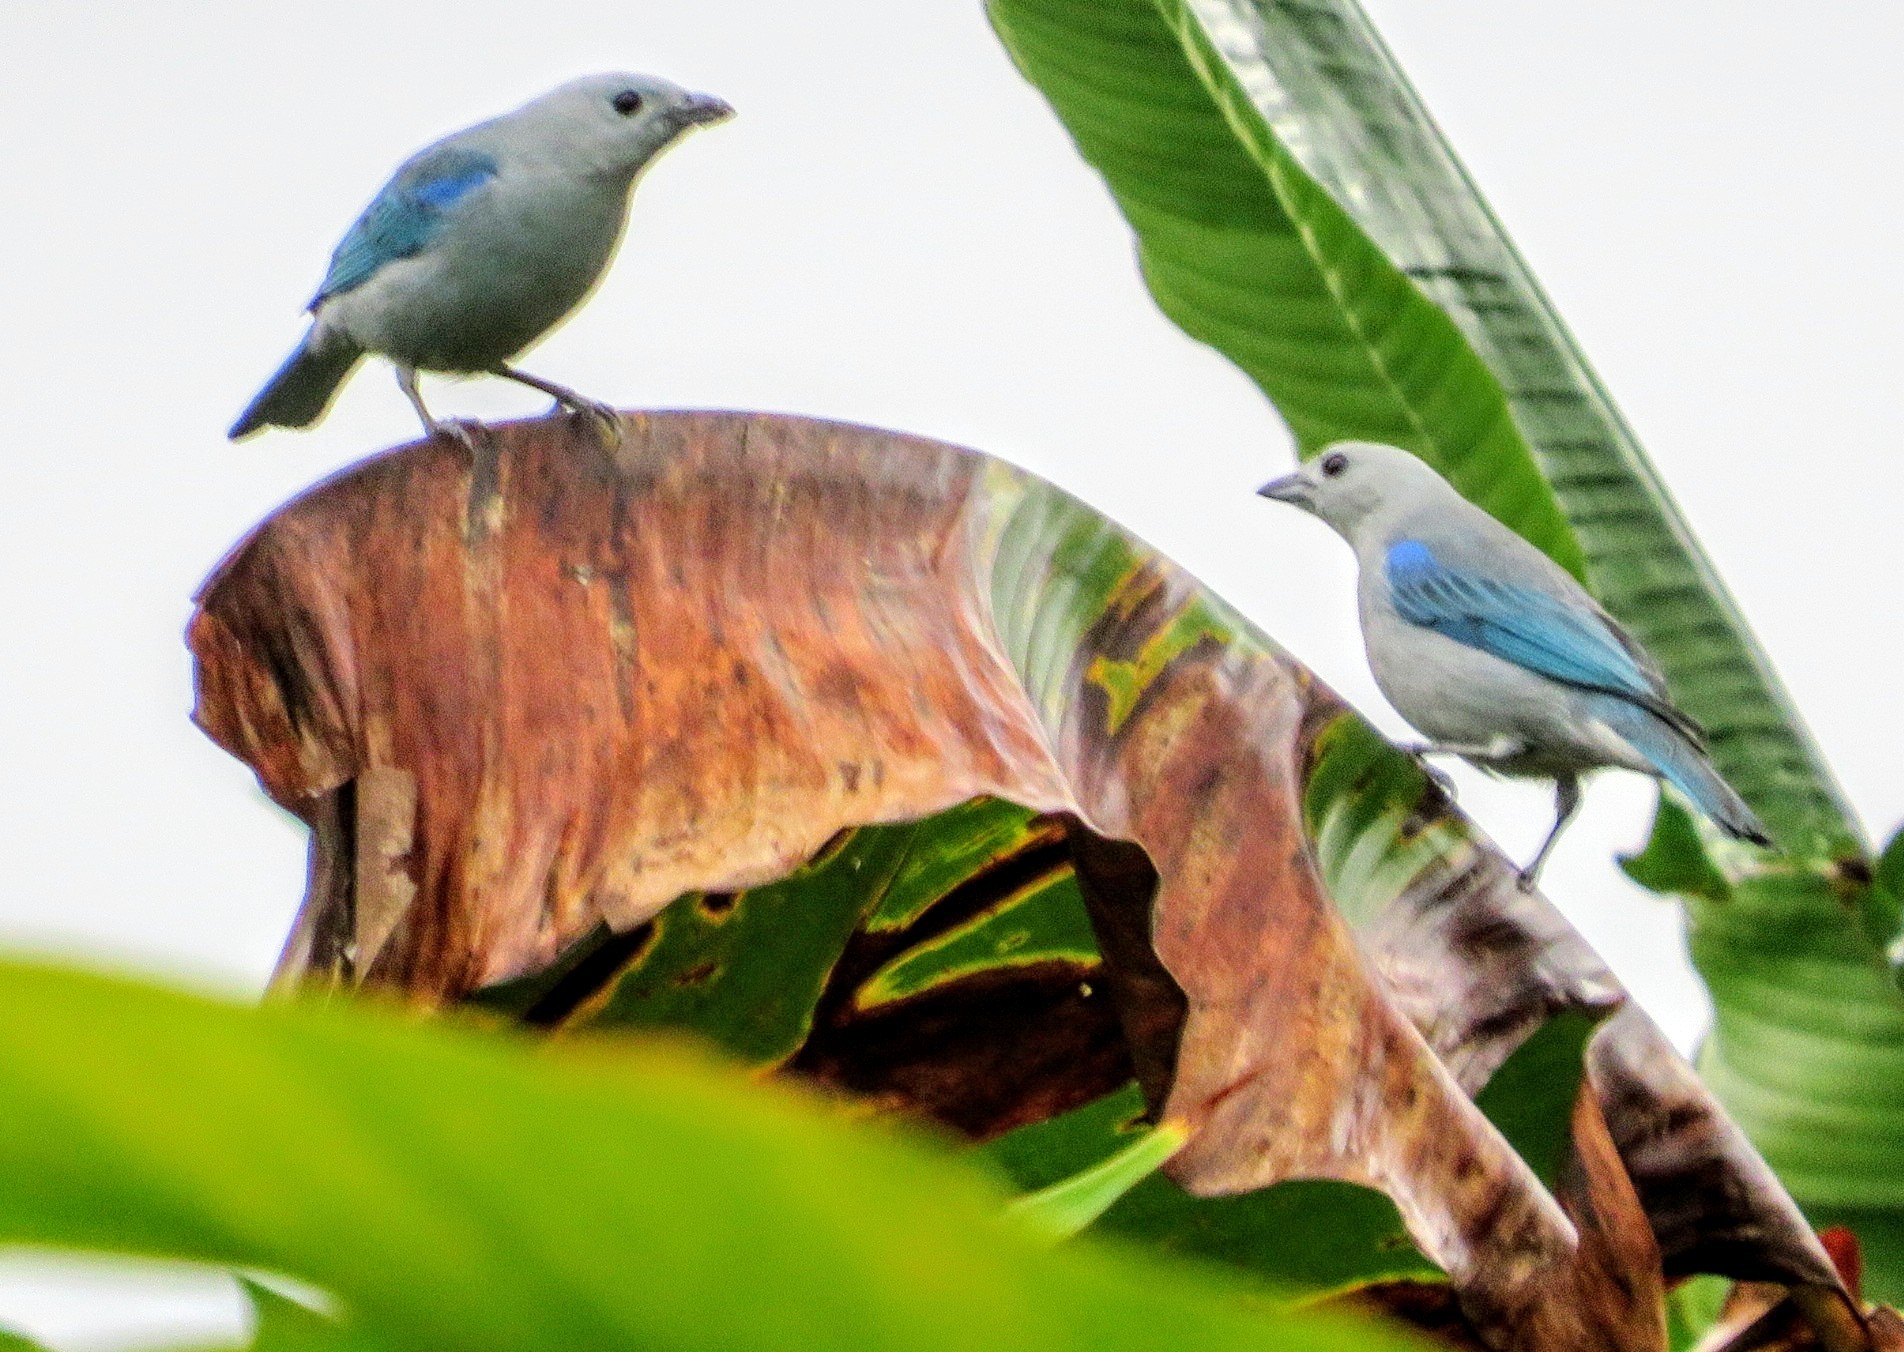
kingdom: Animalia
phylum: Chordata
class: Aves
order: Passeriformes
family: Thraupidae
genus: Thraupis
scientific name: Thraupis episcopus
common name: Blue-grey tanager
